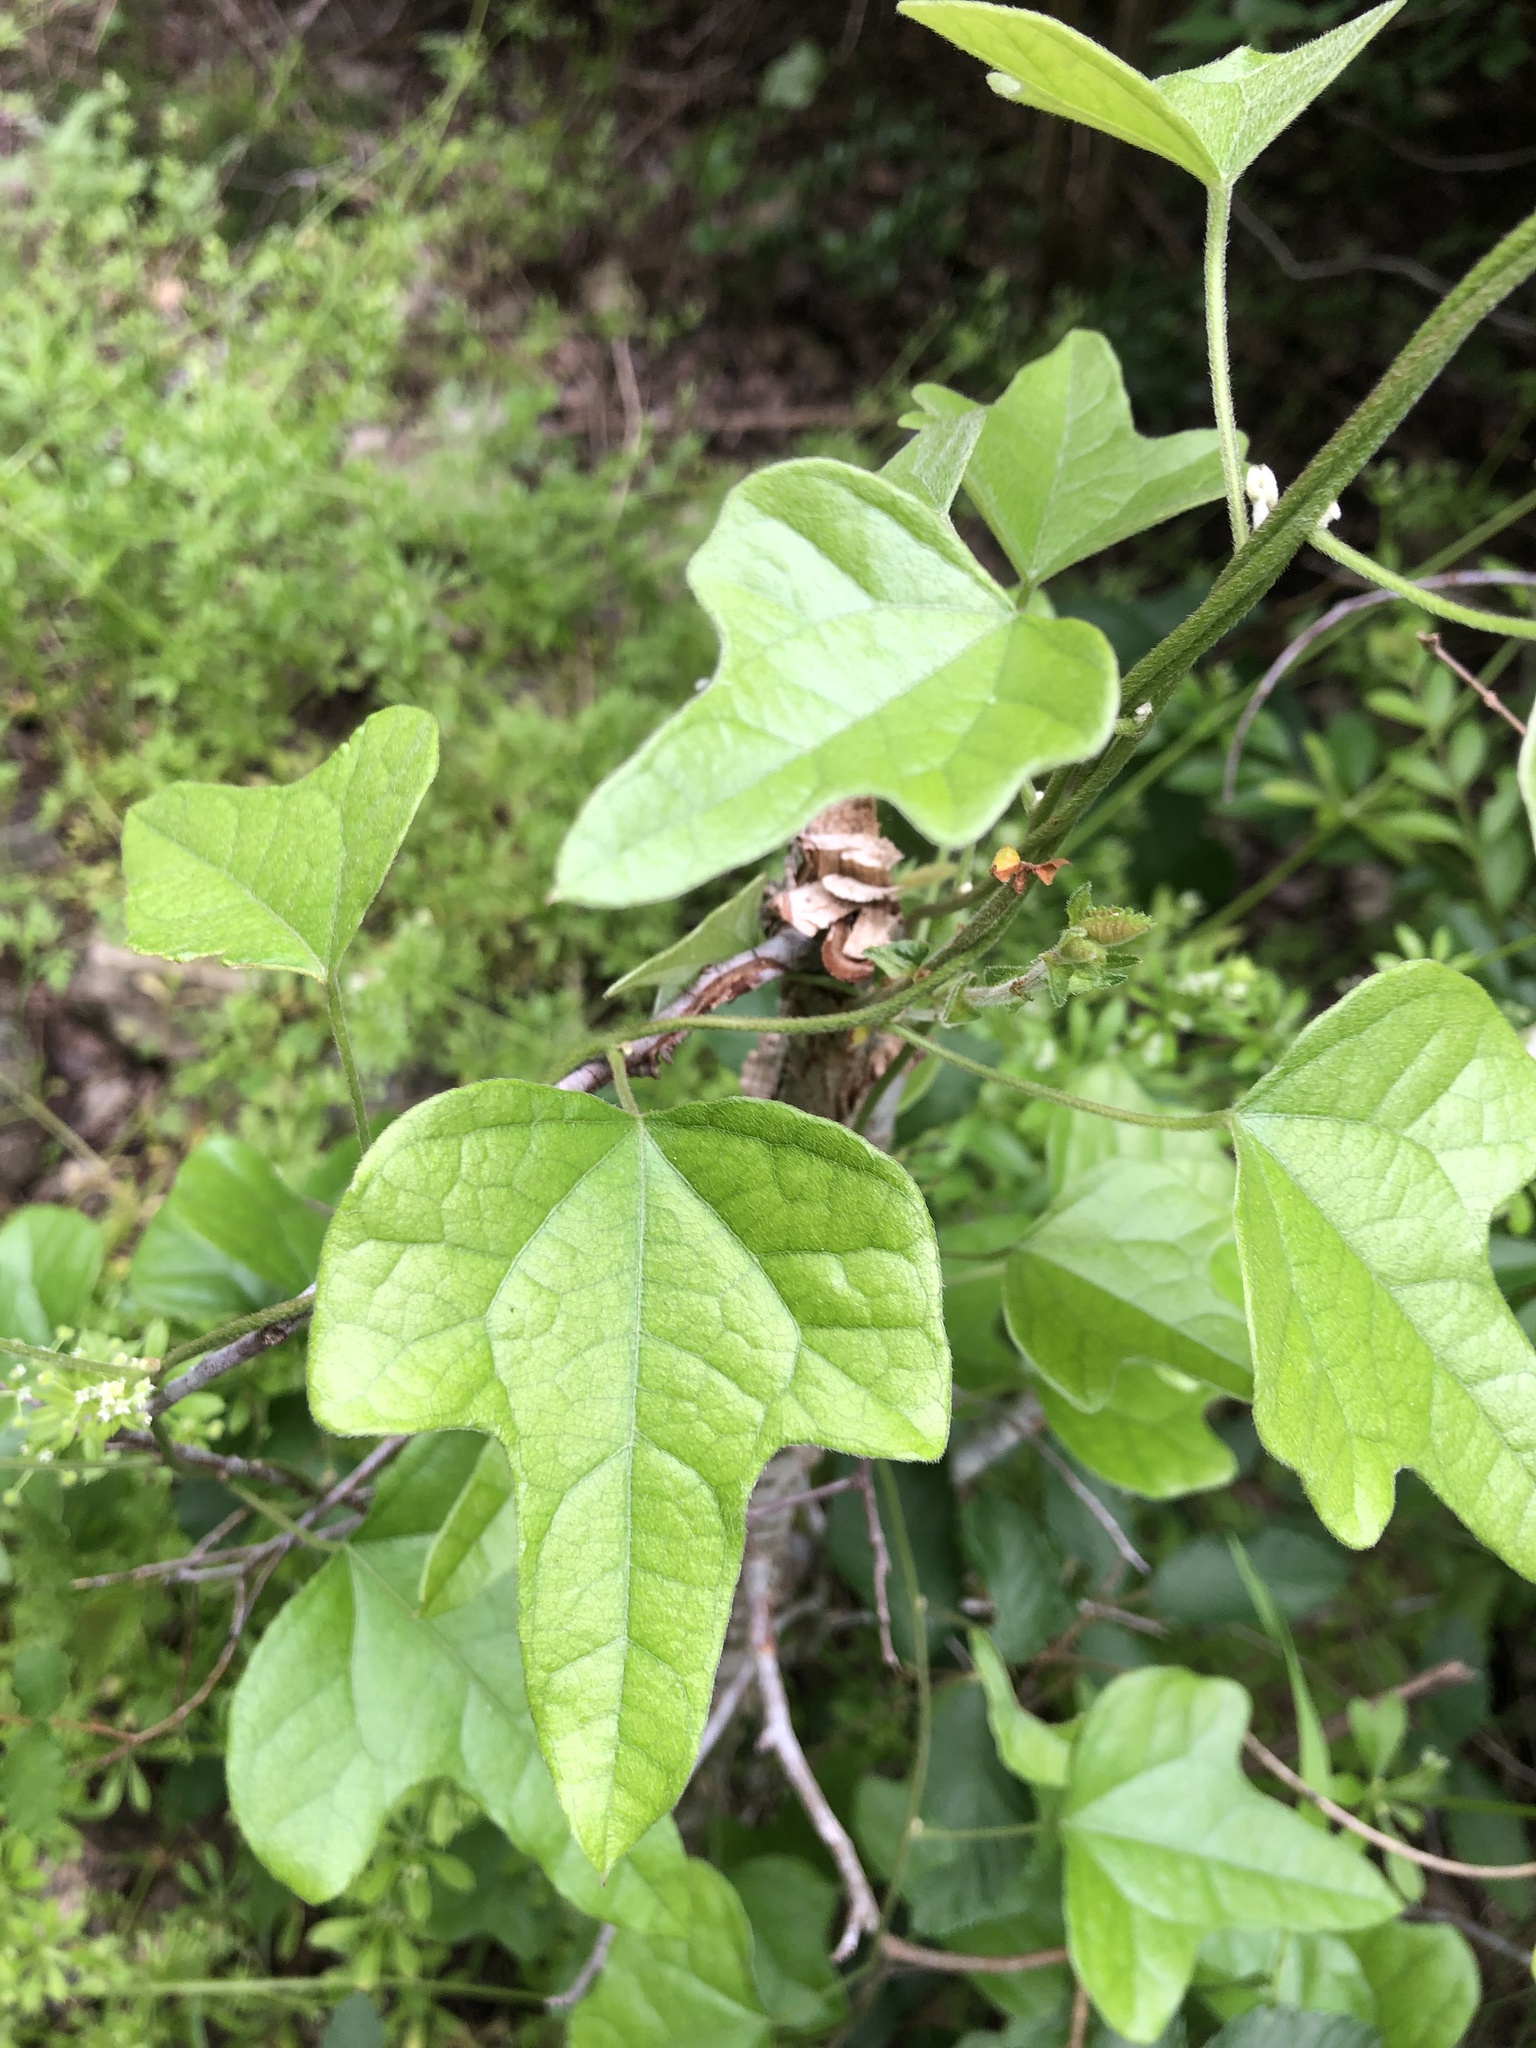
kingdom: Plantae
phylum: Tracheophyta
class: Magnoliopsida
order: Ranunculales
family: Menispermaceae
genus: Cocculus
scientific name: Cocculus carolinus
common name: Carolina moonseed
